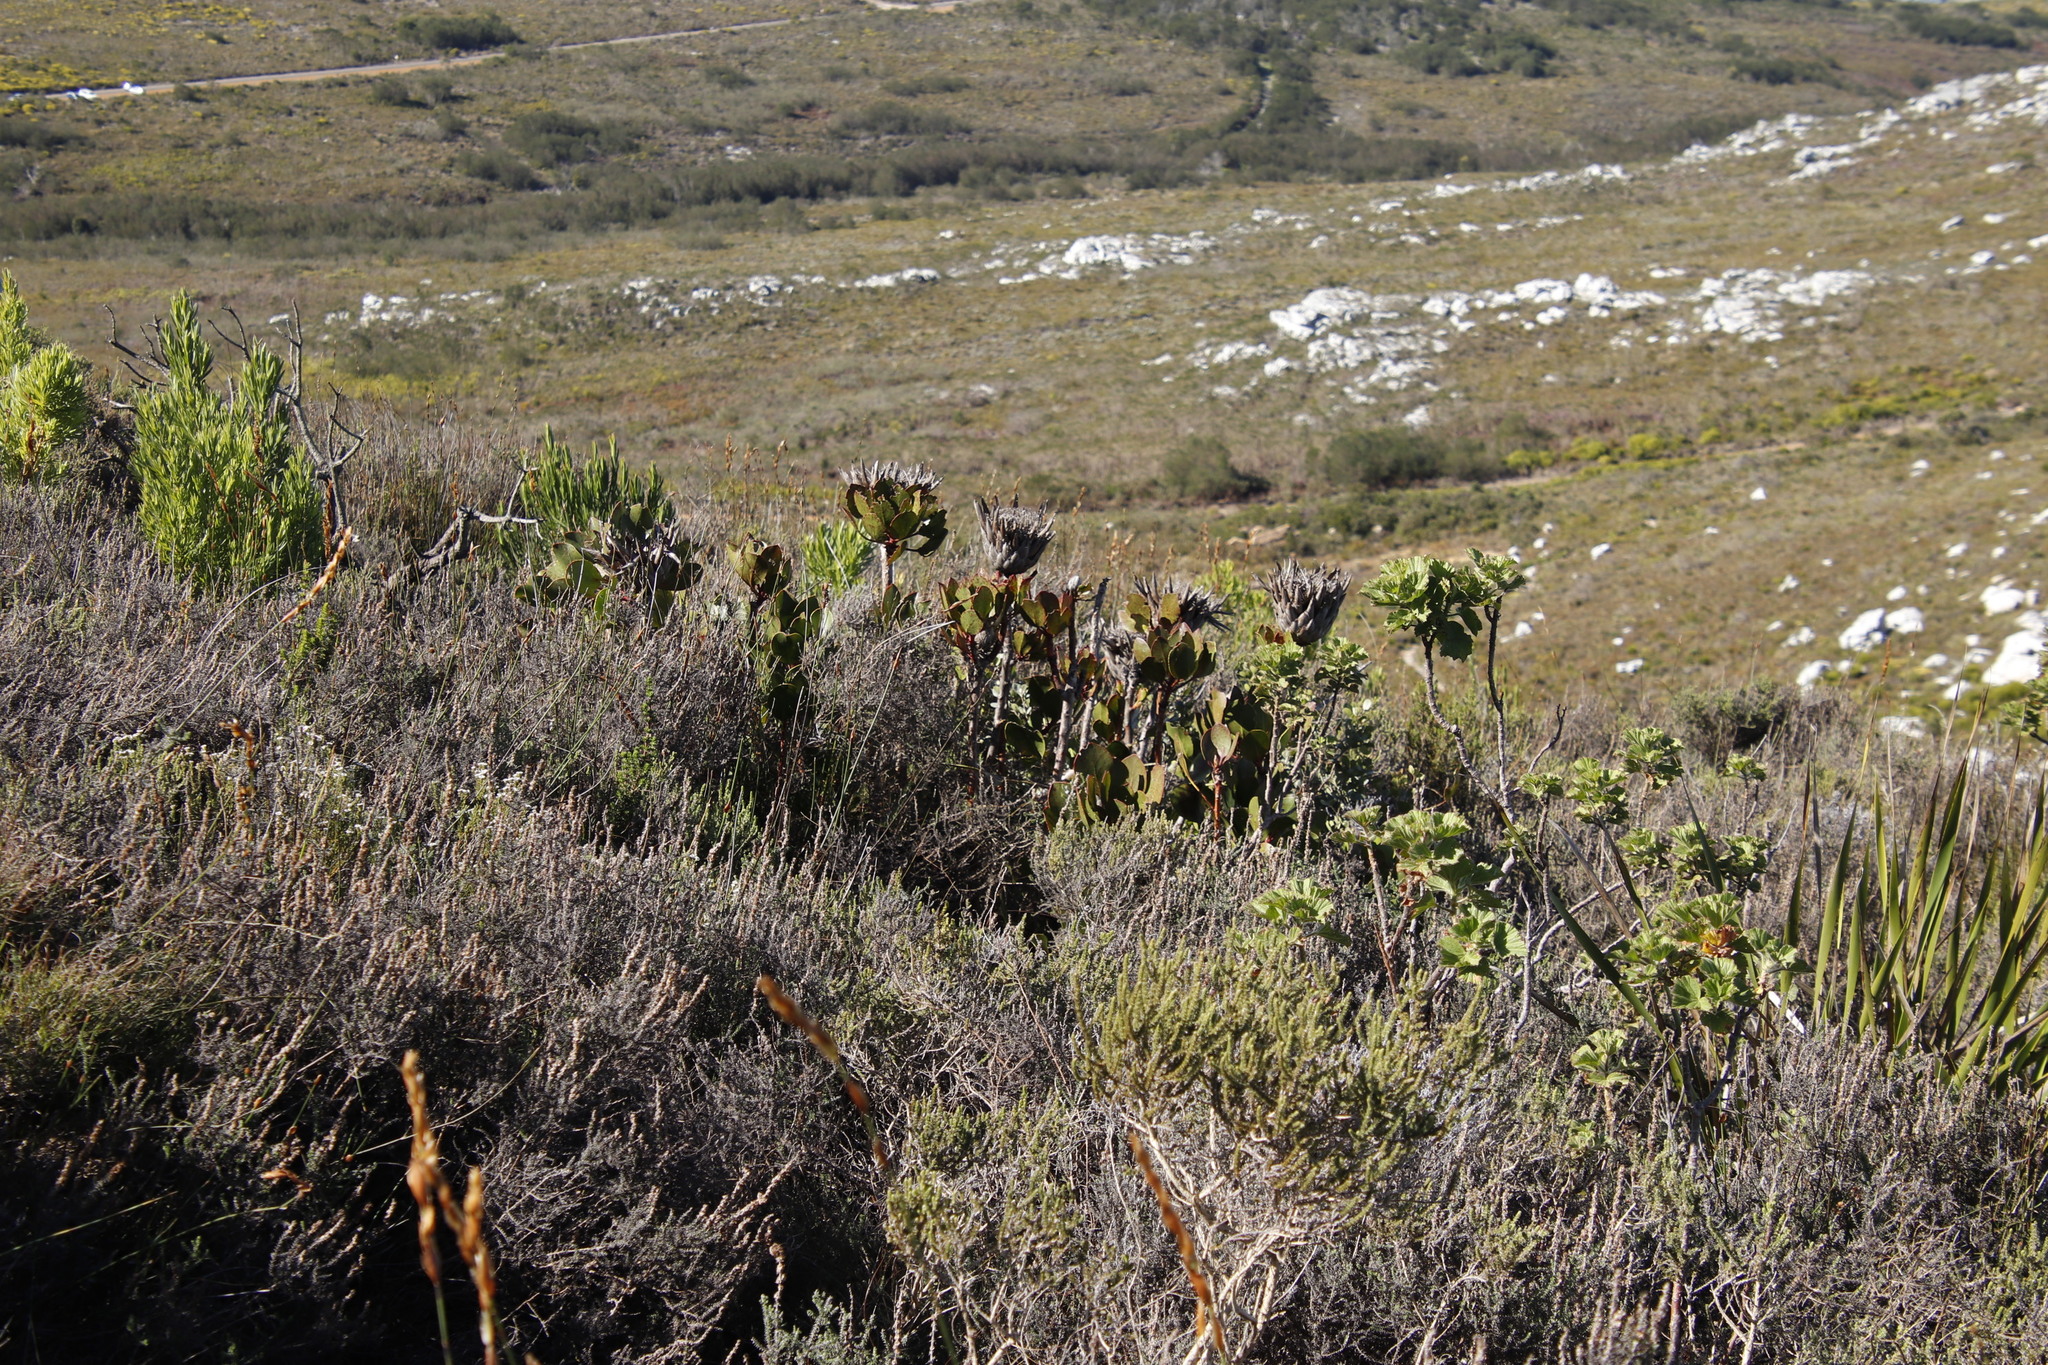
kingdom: Plantae
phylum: Tracheophyta
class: Magnoliopsida
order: Proteales
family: Proteaceae
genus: Protea
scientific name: Protea cynaroides
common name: King protea
